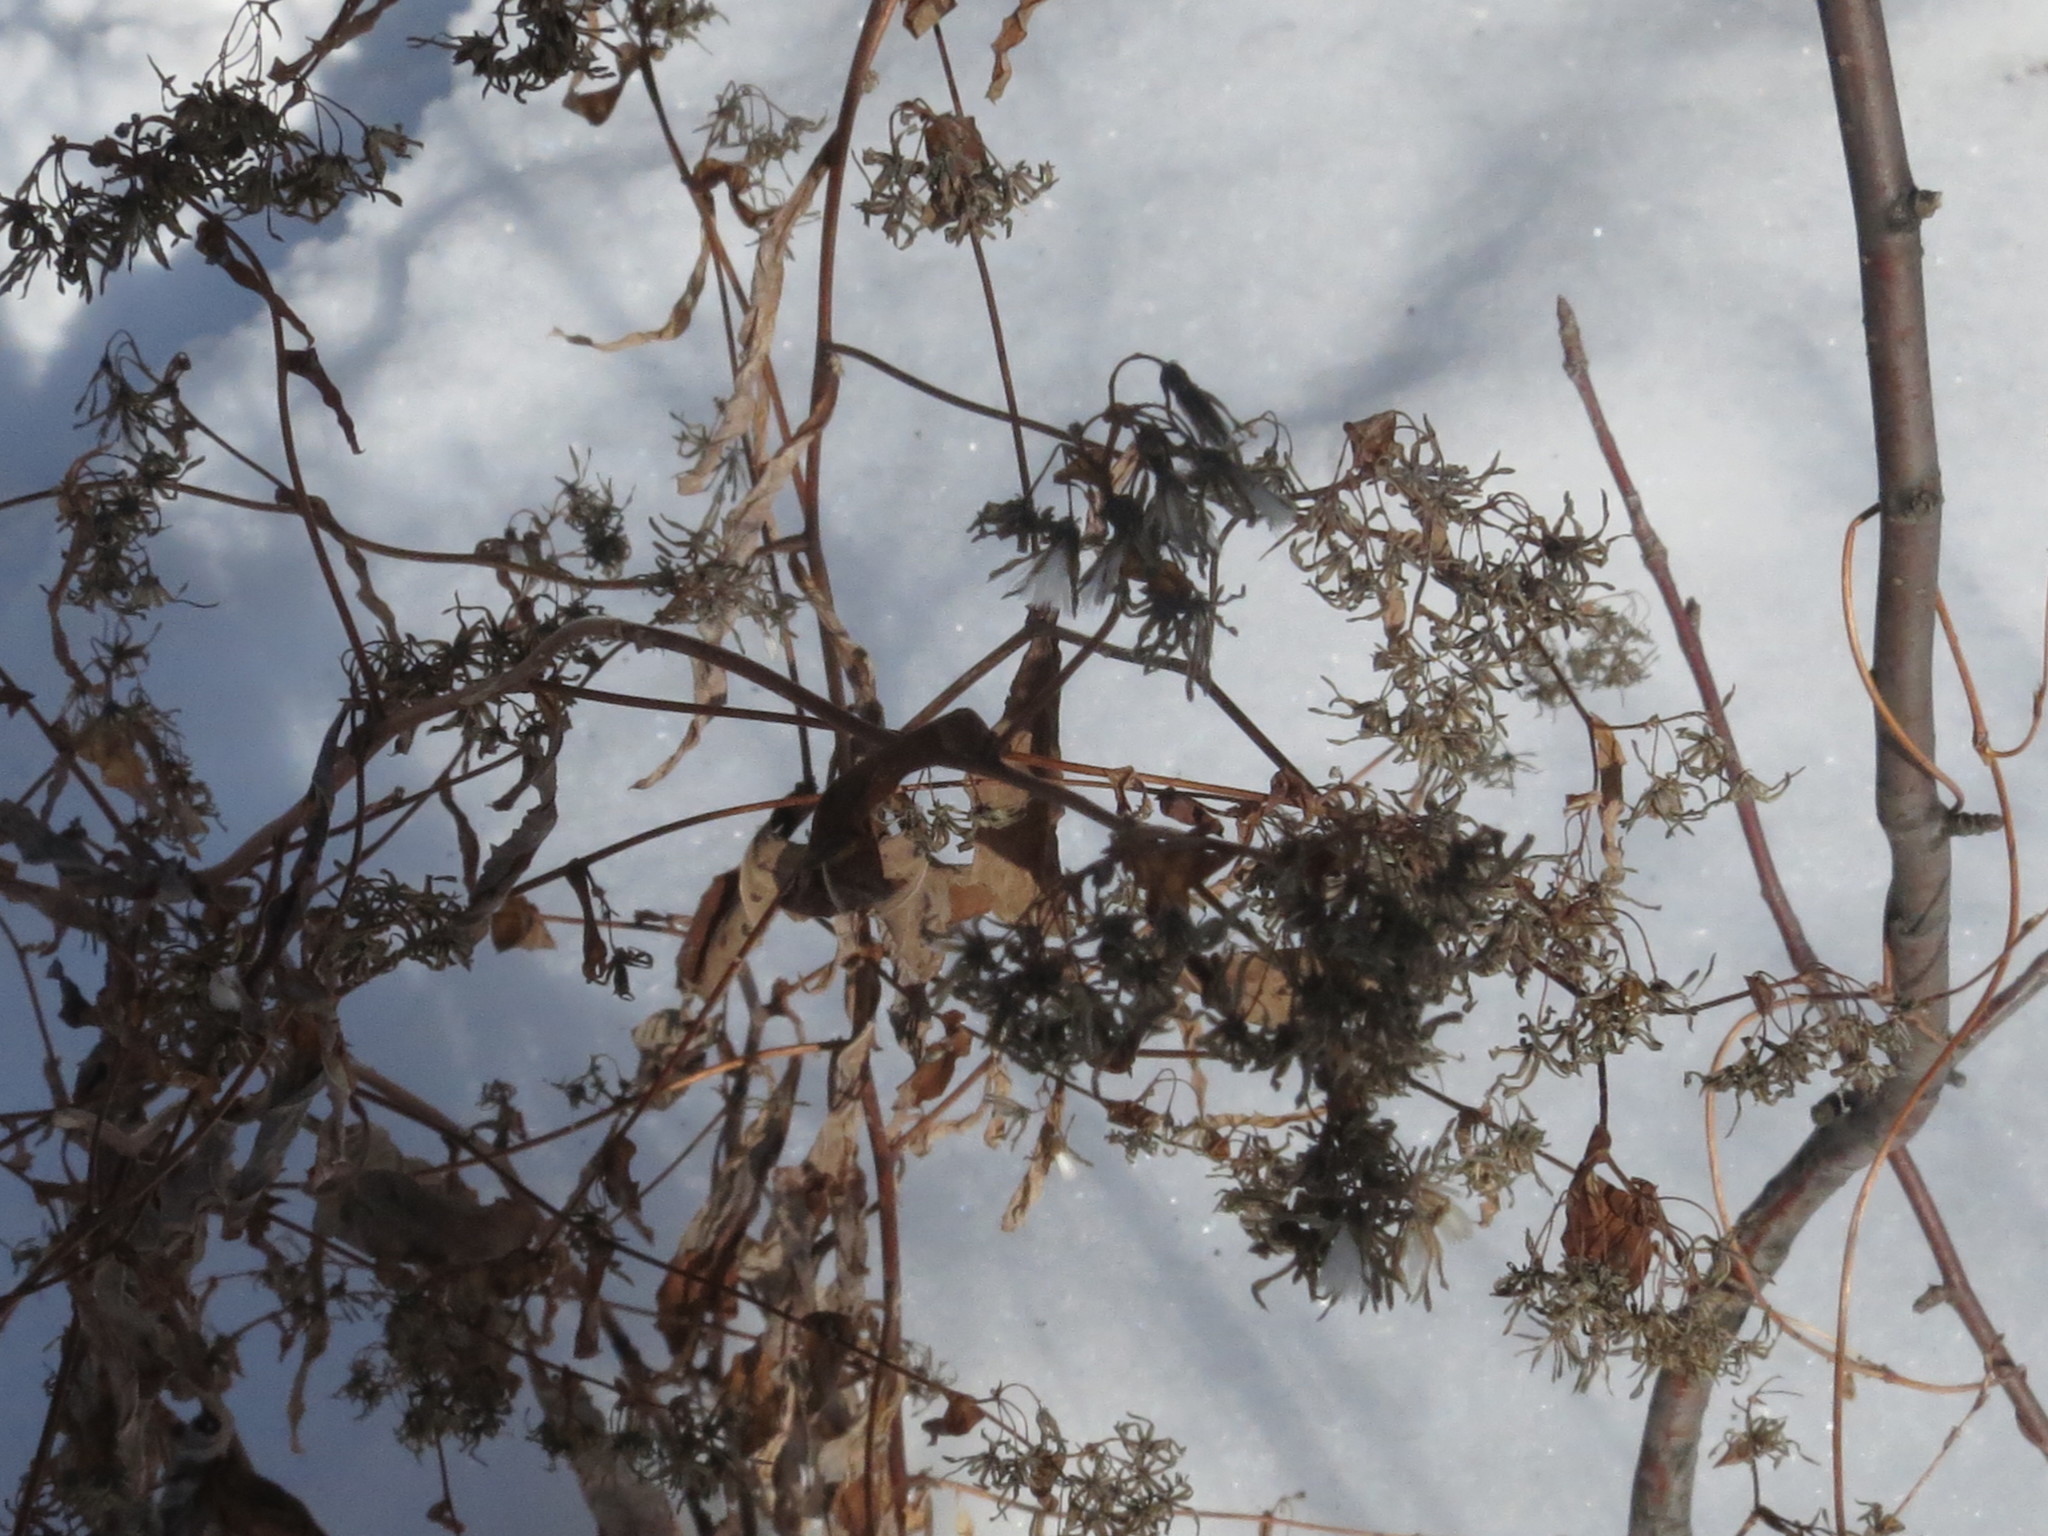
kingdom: Plantae
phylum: Tracheophyta
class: Magnoliopsida
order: Asterales
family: Asteraceae
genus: Crepidiastrum
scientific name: Crepidiastrum denticulatum
